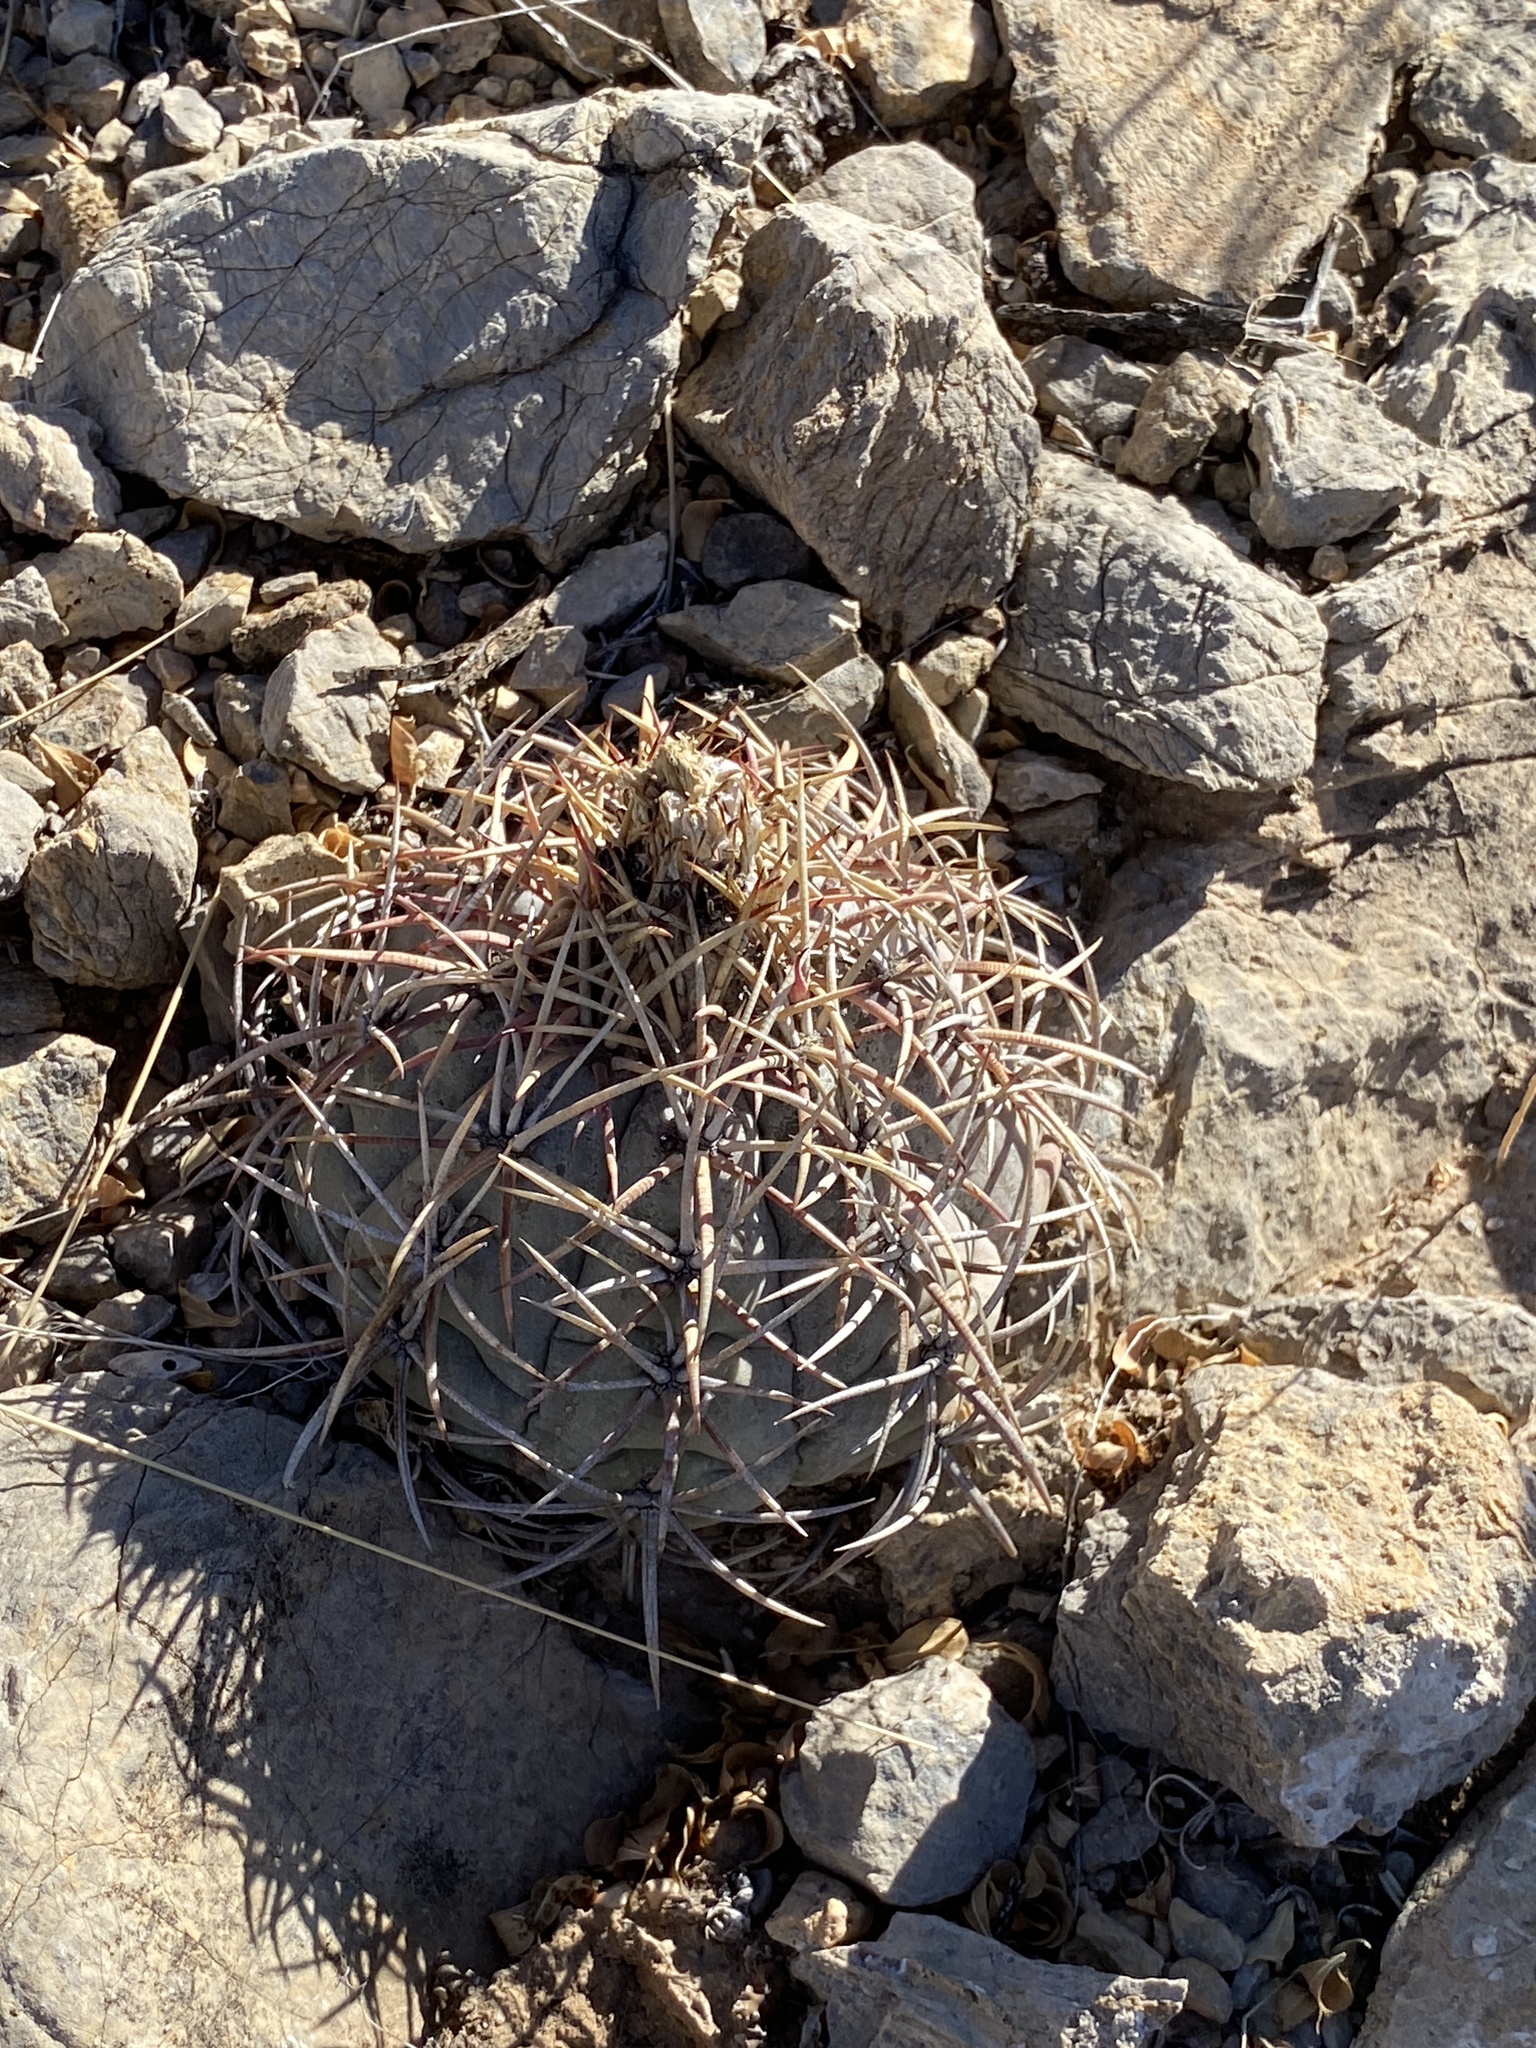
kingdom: Plantae
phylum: Tracheophyta
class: Magnoliopsida
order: Caryophyllales
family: Cactaceae
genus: Echinocactus
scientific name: Echinocactus horizonthalonius
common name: Devilshead
